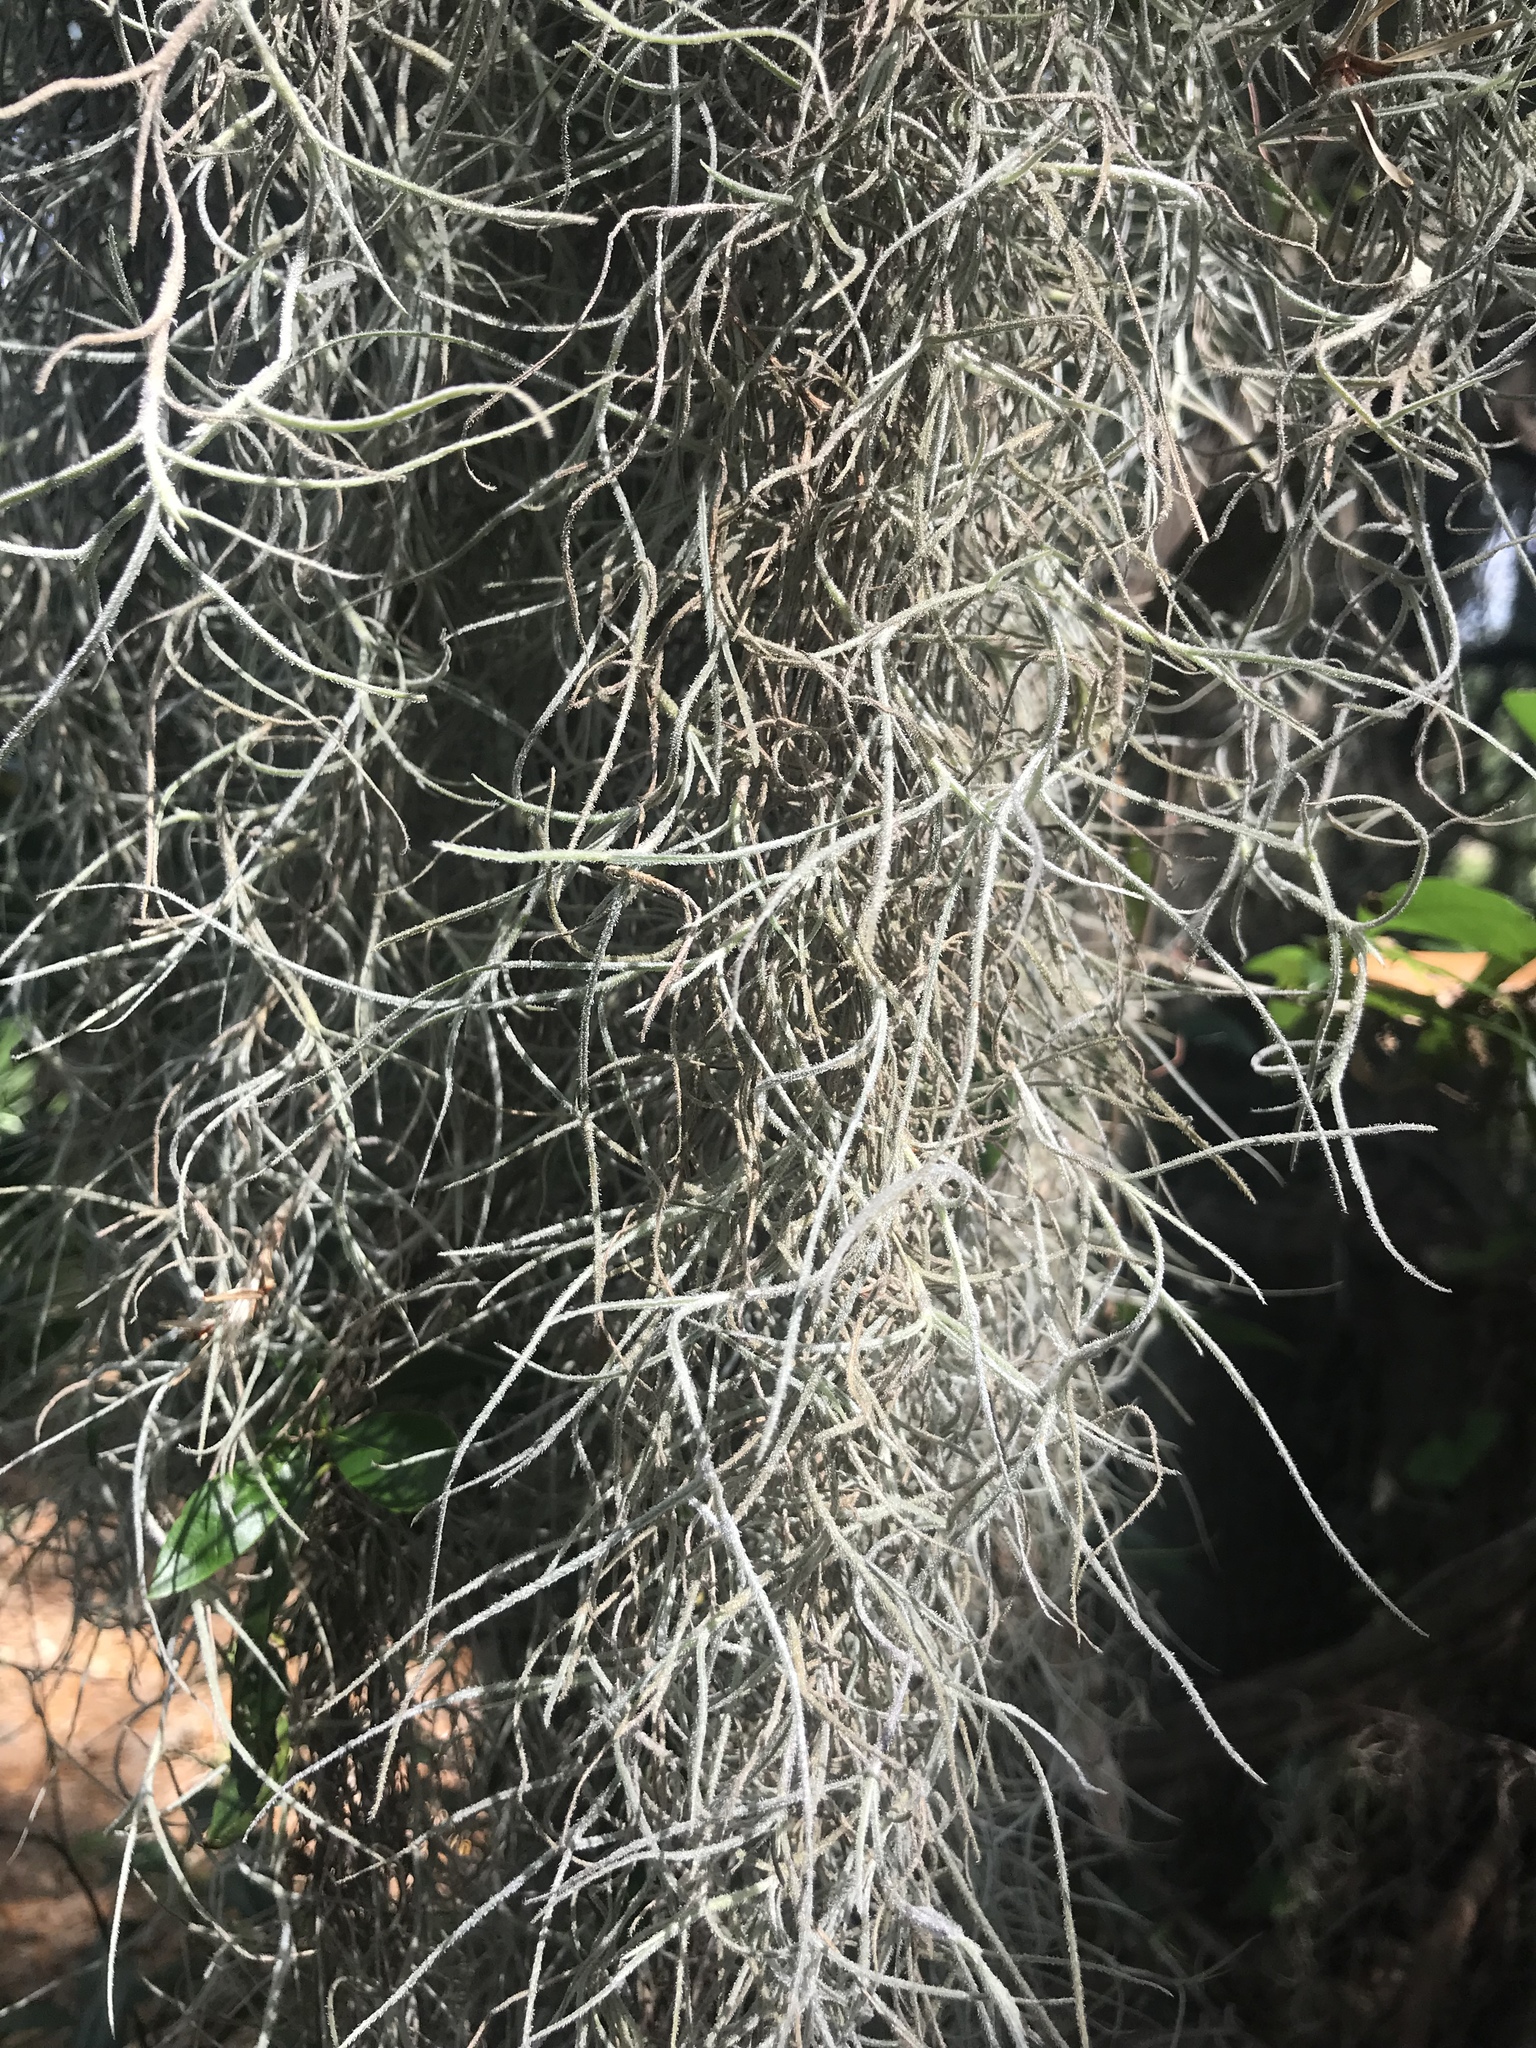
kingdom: Plantae
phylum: Tracheophyta
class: Liliopsida
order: Poales
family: Bromeliaceae
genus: Tillandsia
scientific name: Tillandsia usneoides
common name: Spanish moss
